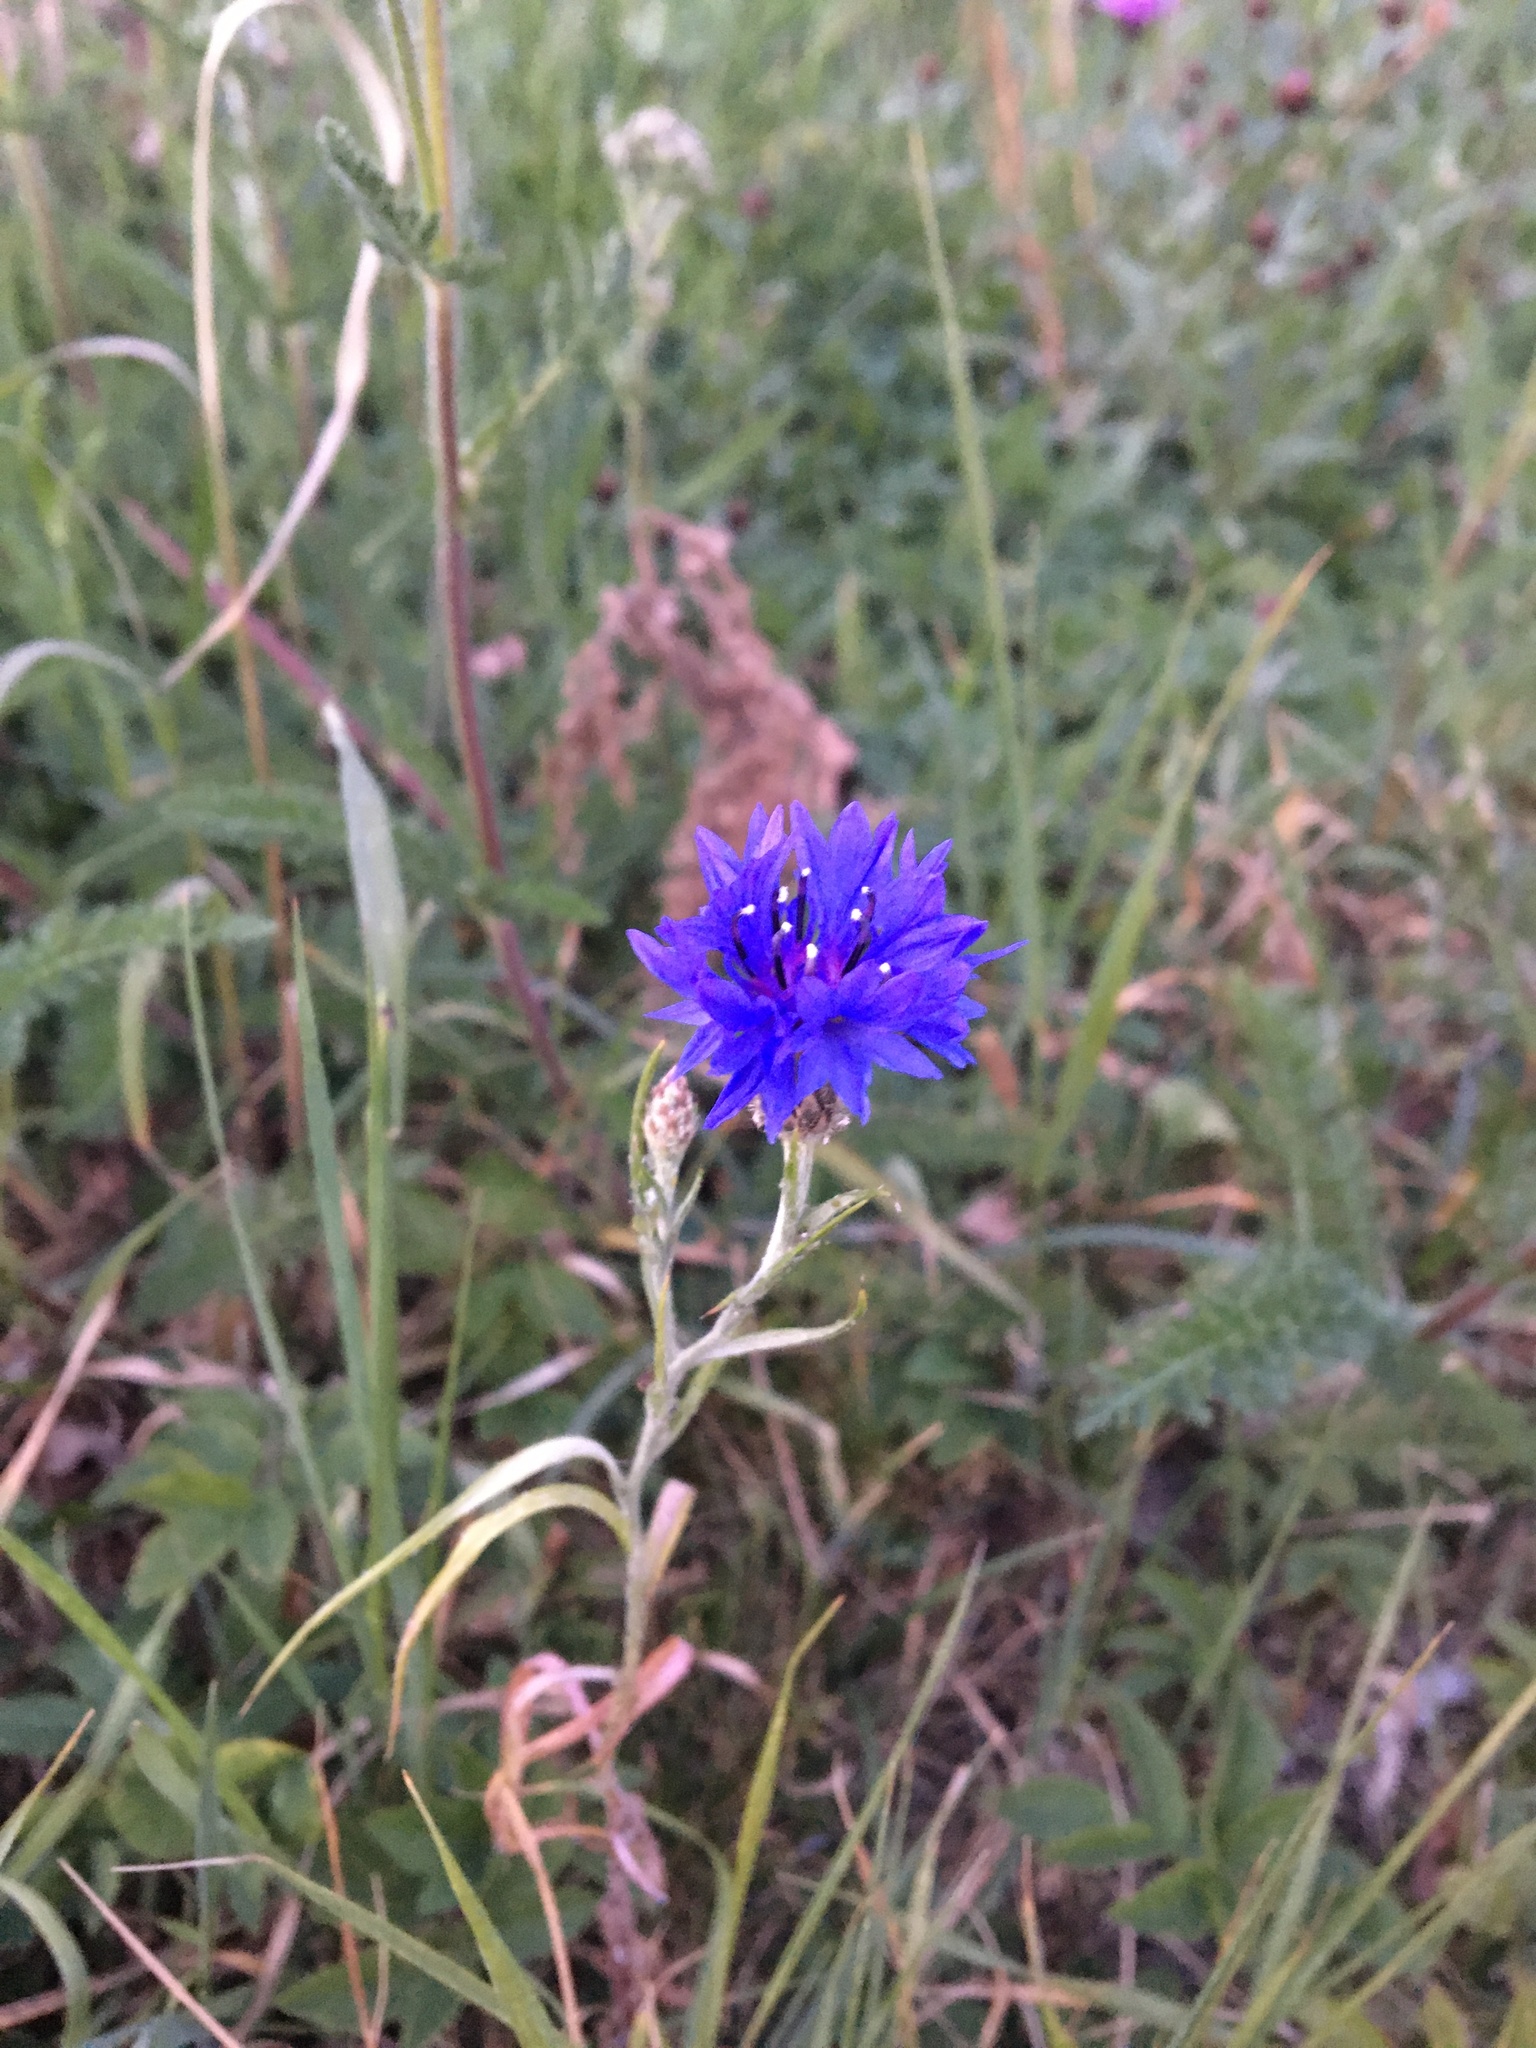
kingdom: Plantae
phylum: Tracheophyta
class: Magnoliopsida
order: Asterales
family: Asteraceae
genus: Centaurea
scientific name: Centaurea cyanus
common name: Cornflower
